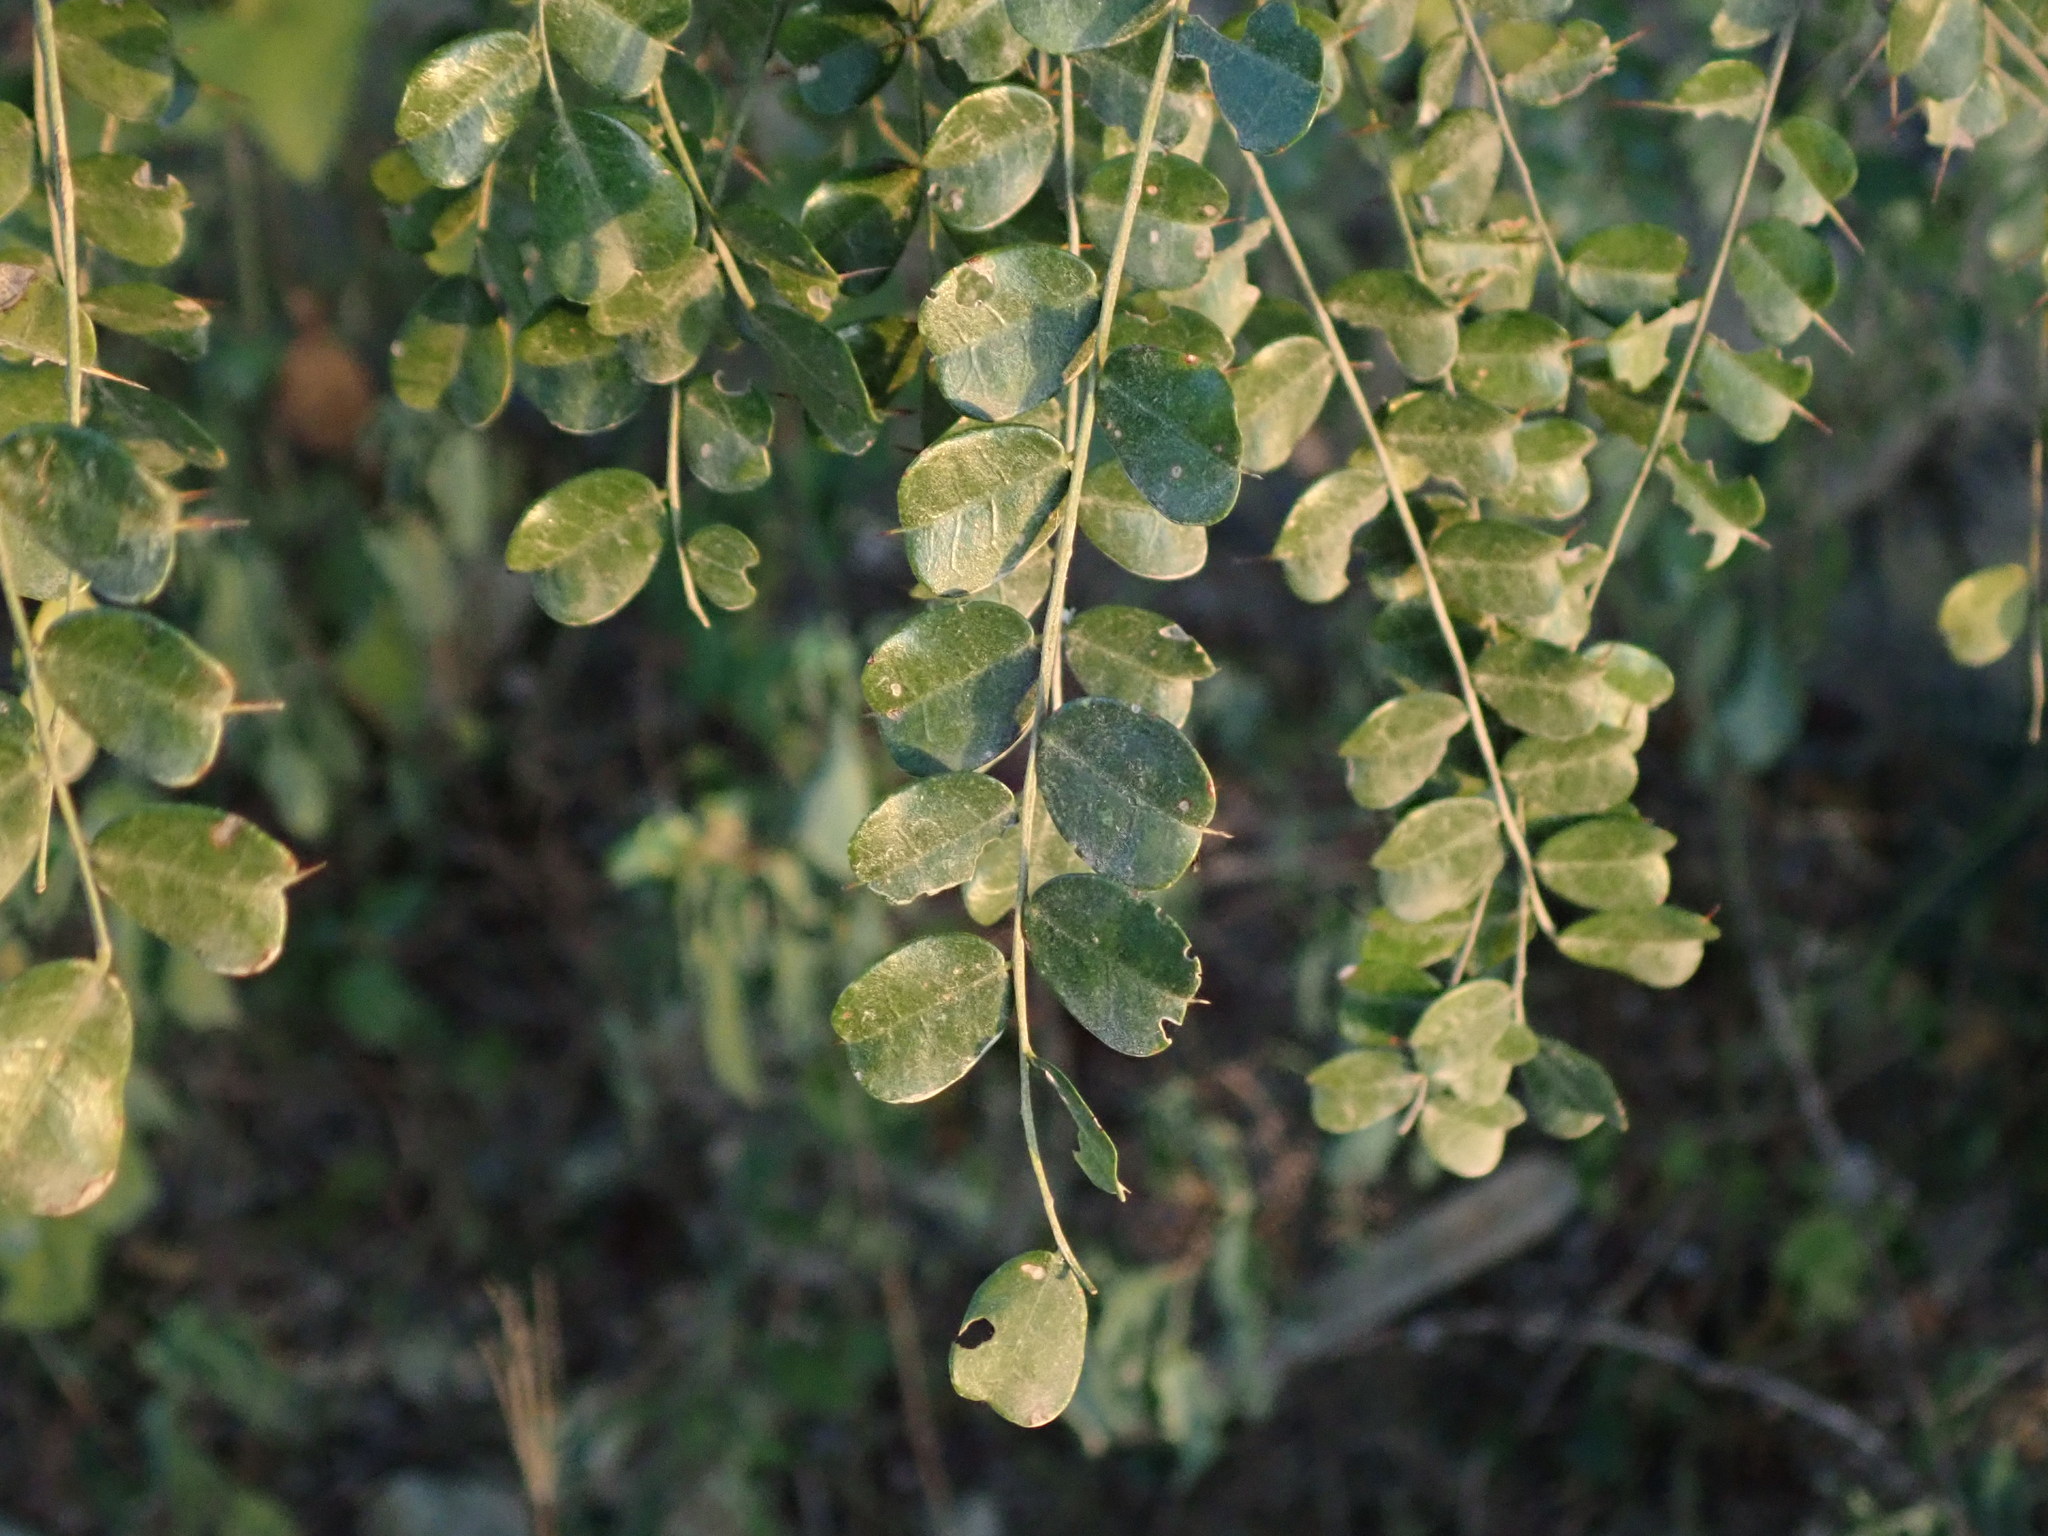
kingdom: Plantae
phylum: Tracheophyta
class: Magnoliopsida
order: Fabales
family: Fabaceae
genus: Pictetia
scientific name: Pictetia aculeata
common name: Fustic
